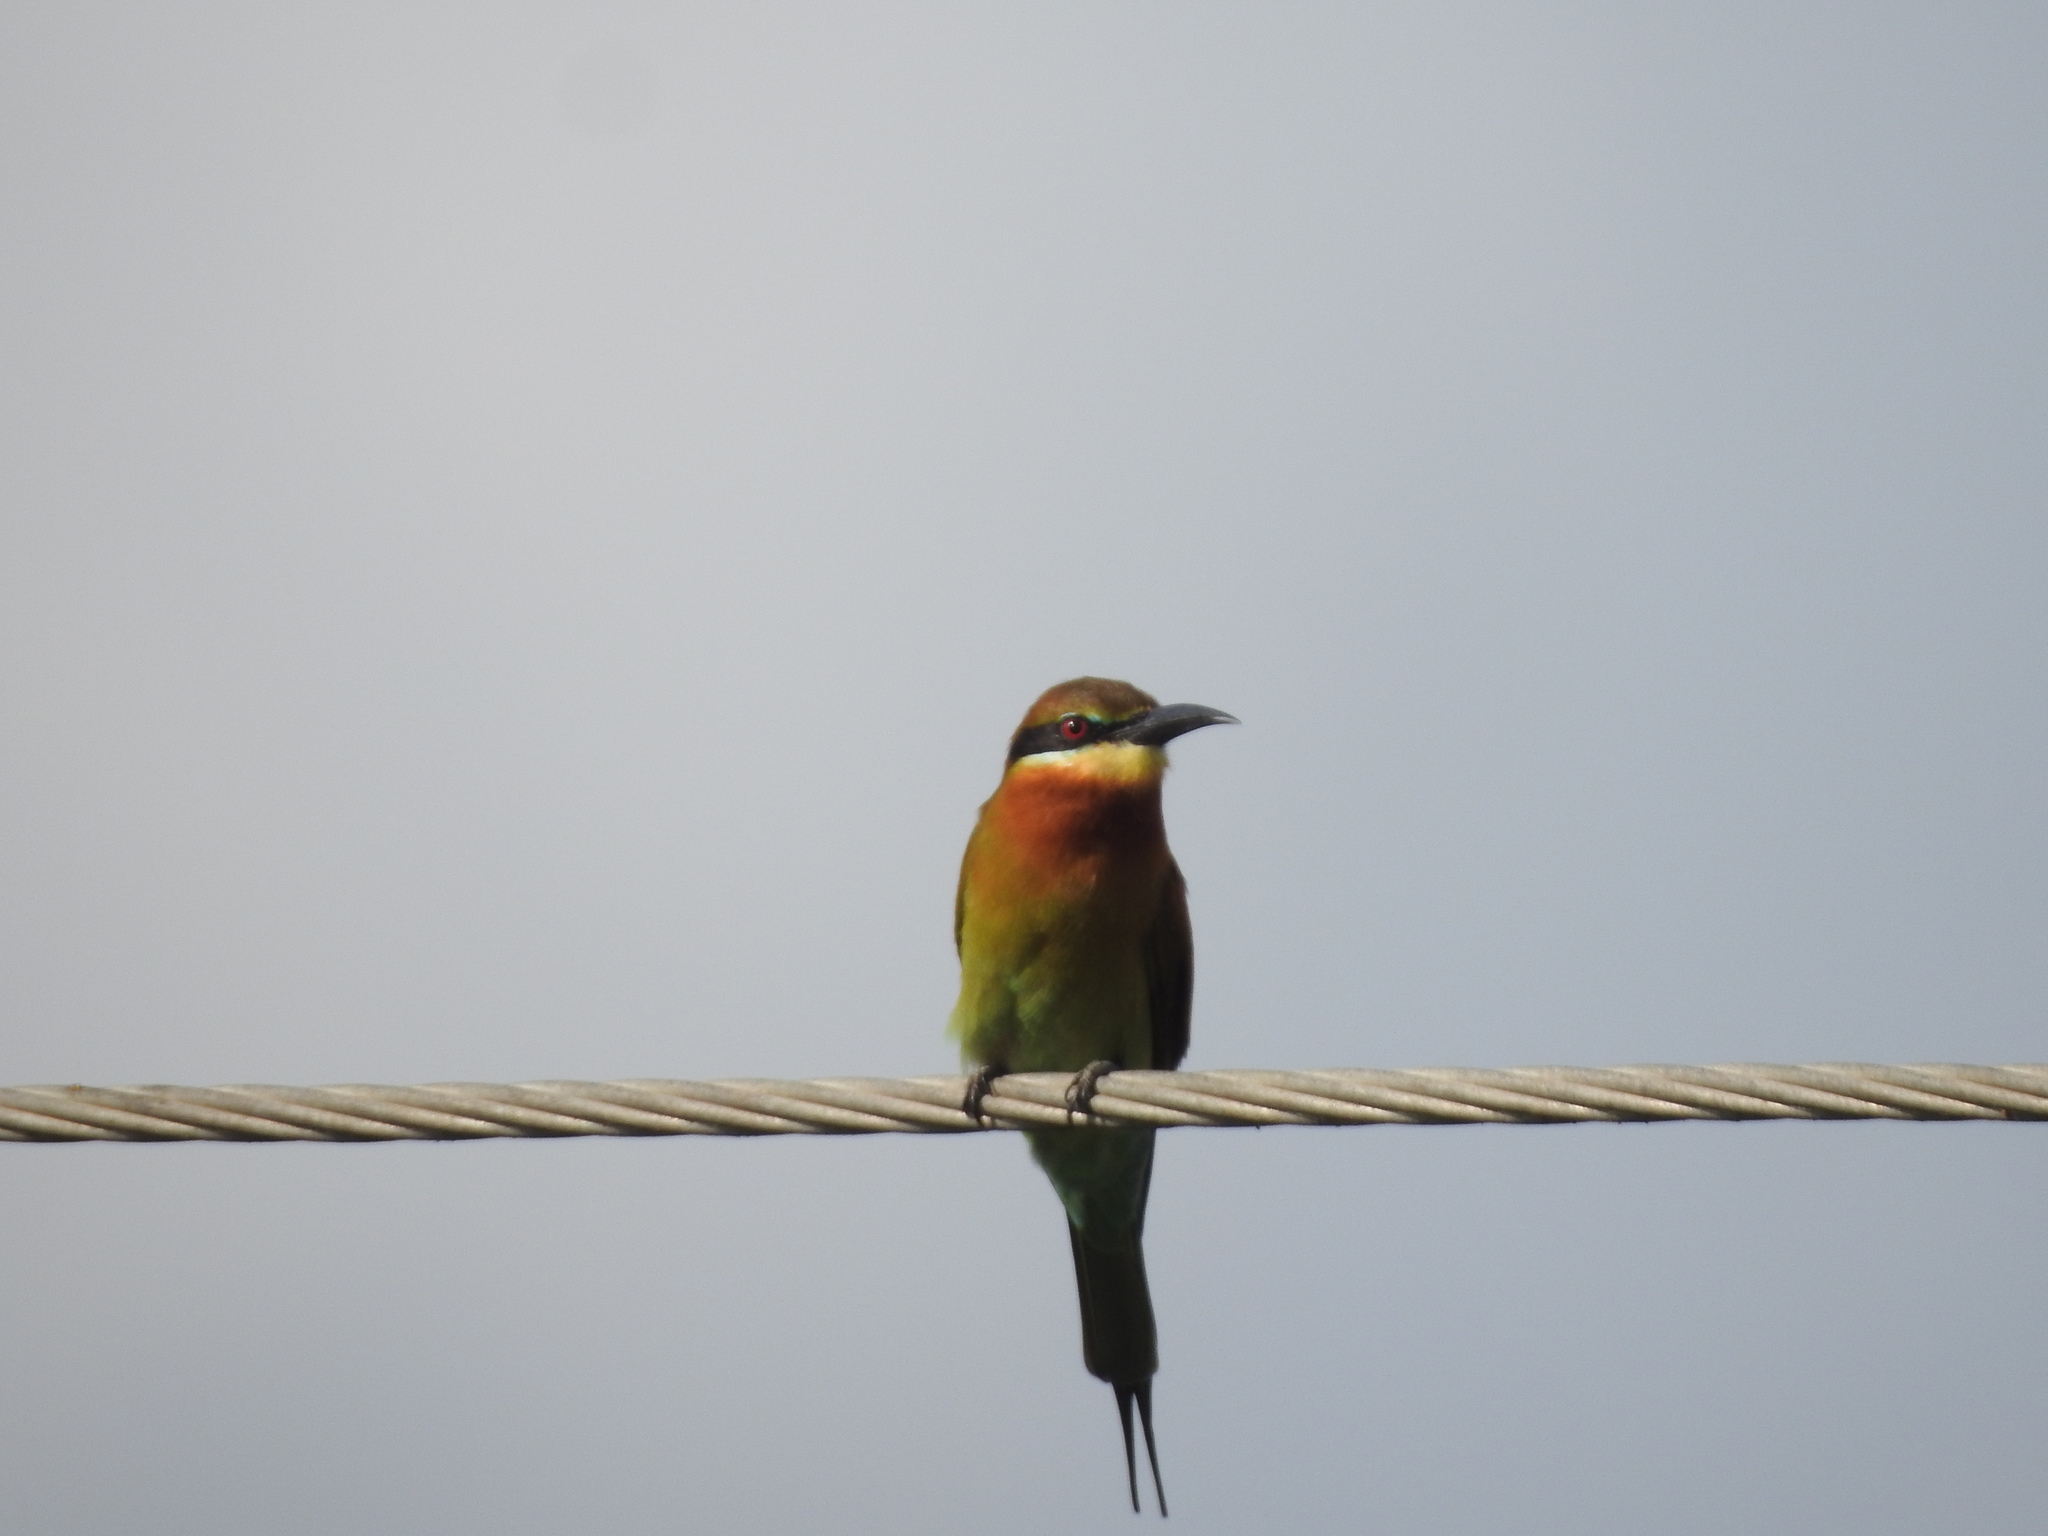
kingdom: Animalia
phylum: Chordata
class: Aves
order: Coraciiformes
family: Meropidae
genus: Merops
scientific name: Merops philippinus
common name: Blue-tailed bee-eater
